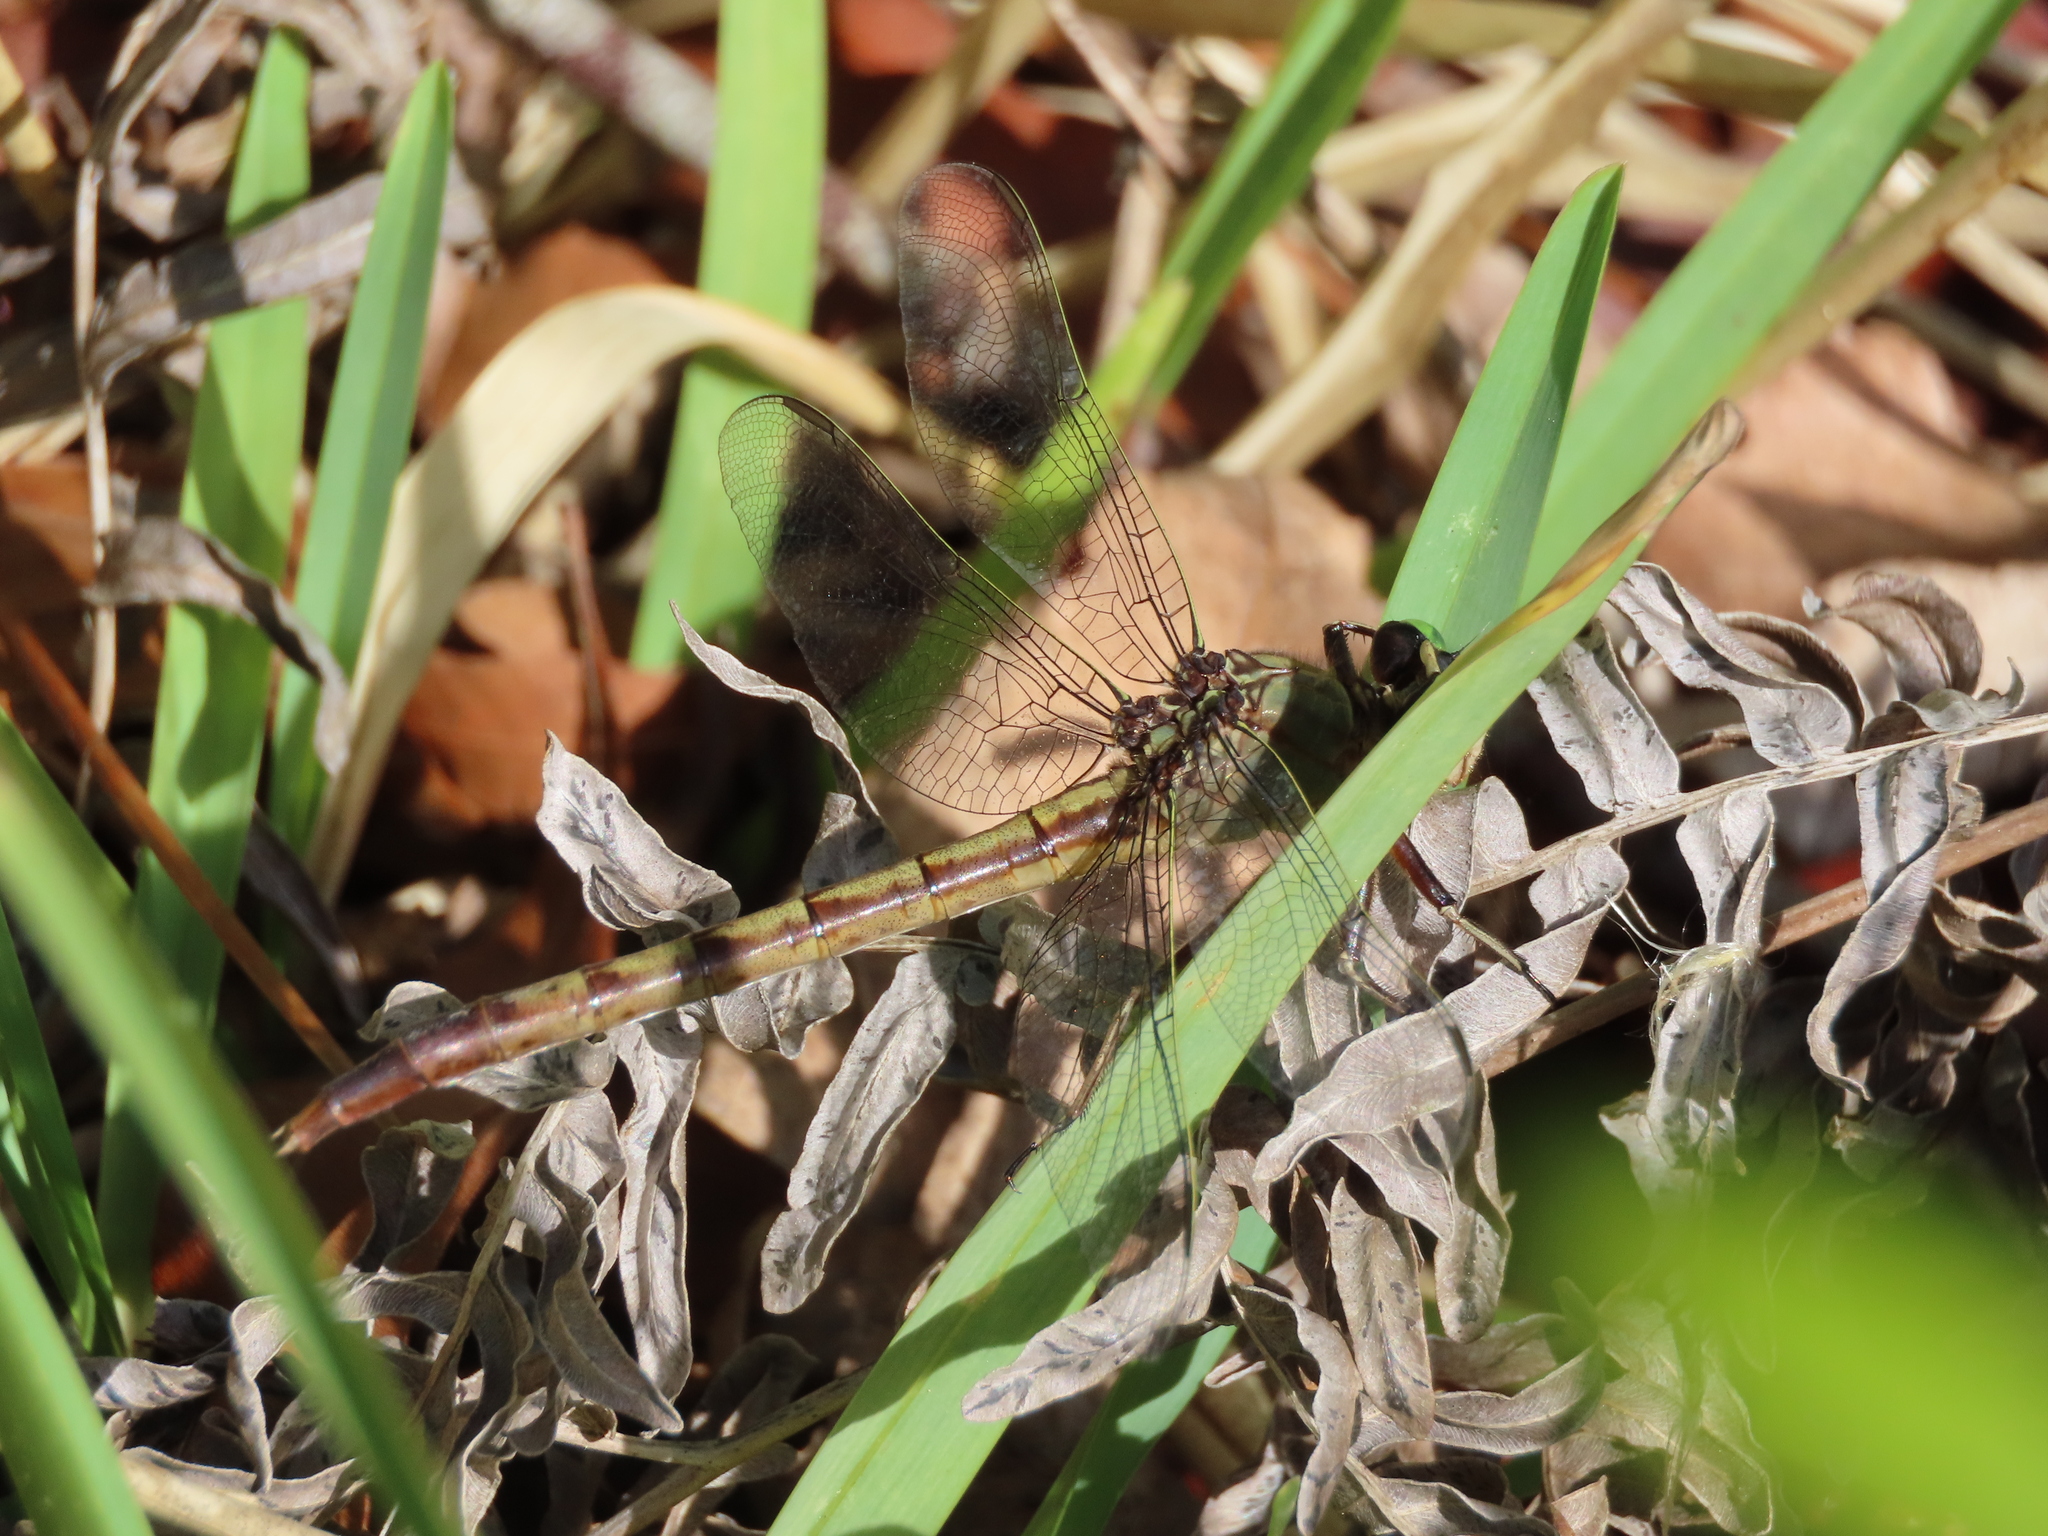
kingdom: Animalia
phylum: Arthropoda
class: Insecta
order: Odonata
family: Gomphidae
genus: Arigomphus
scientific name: Arigomphus pallidus
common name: Gray-green clubtail
